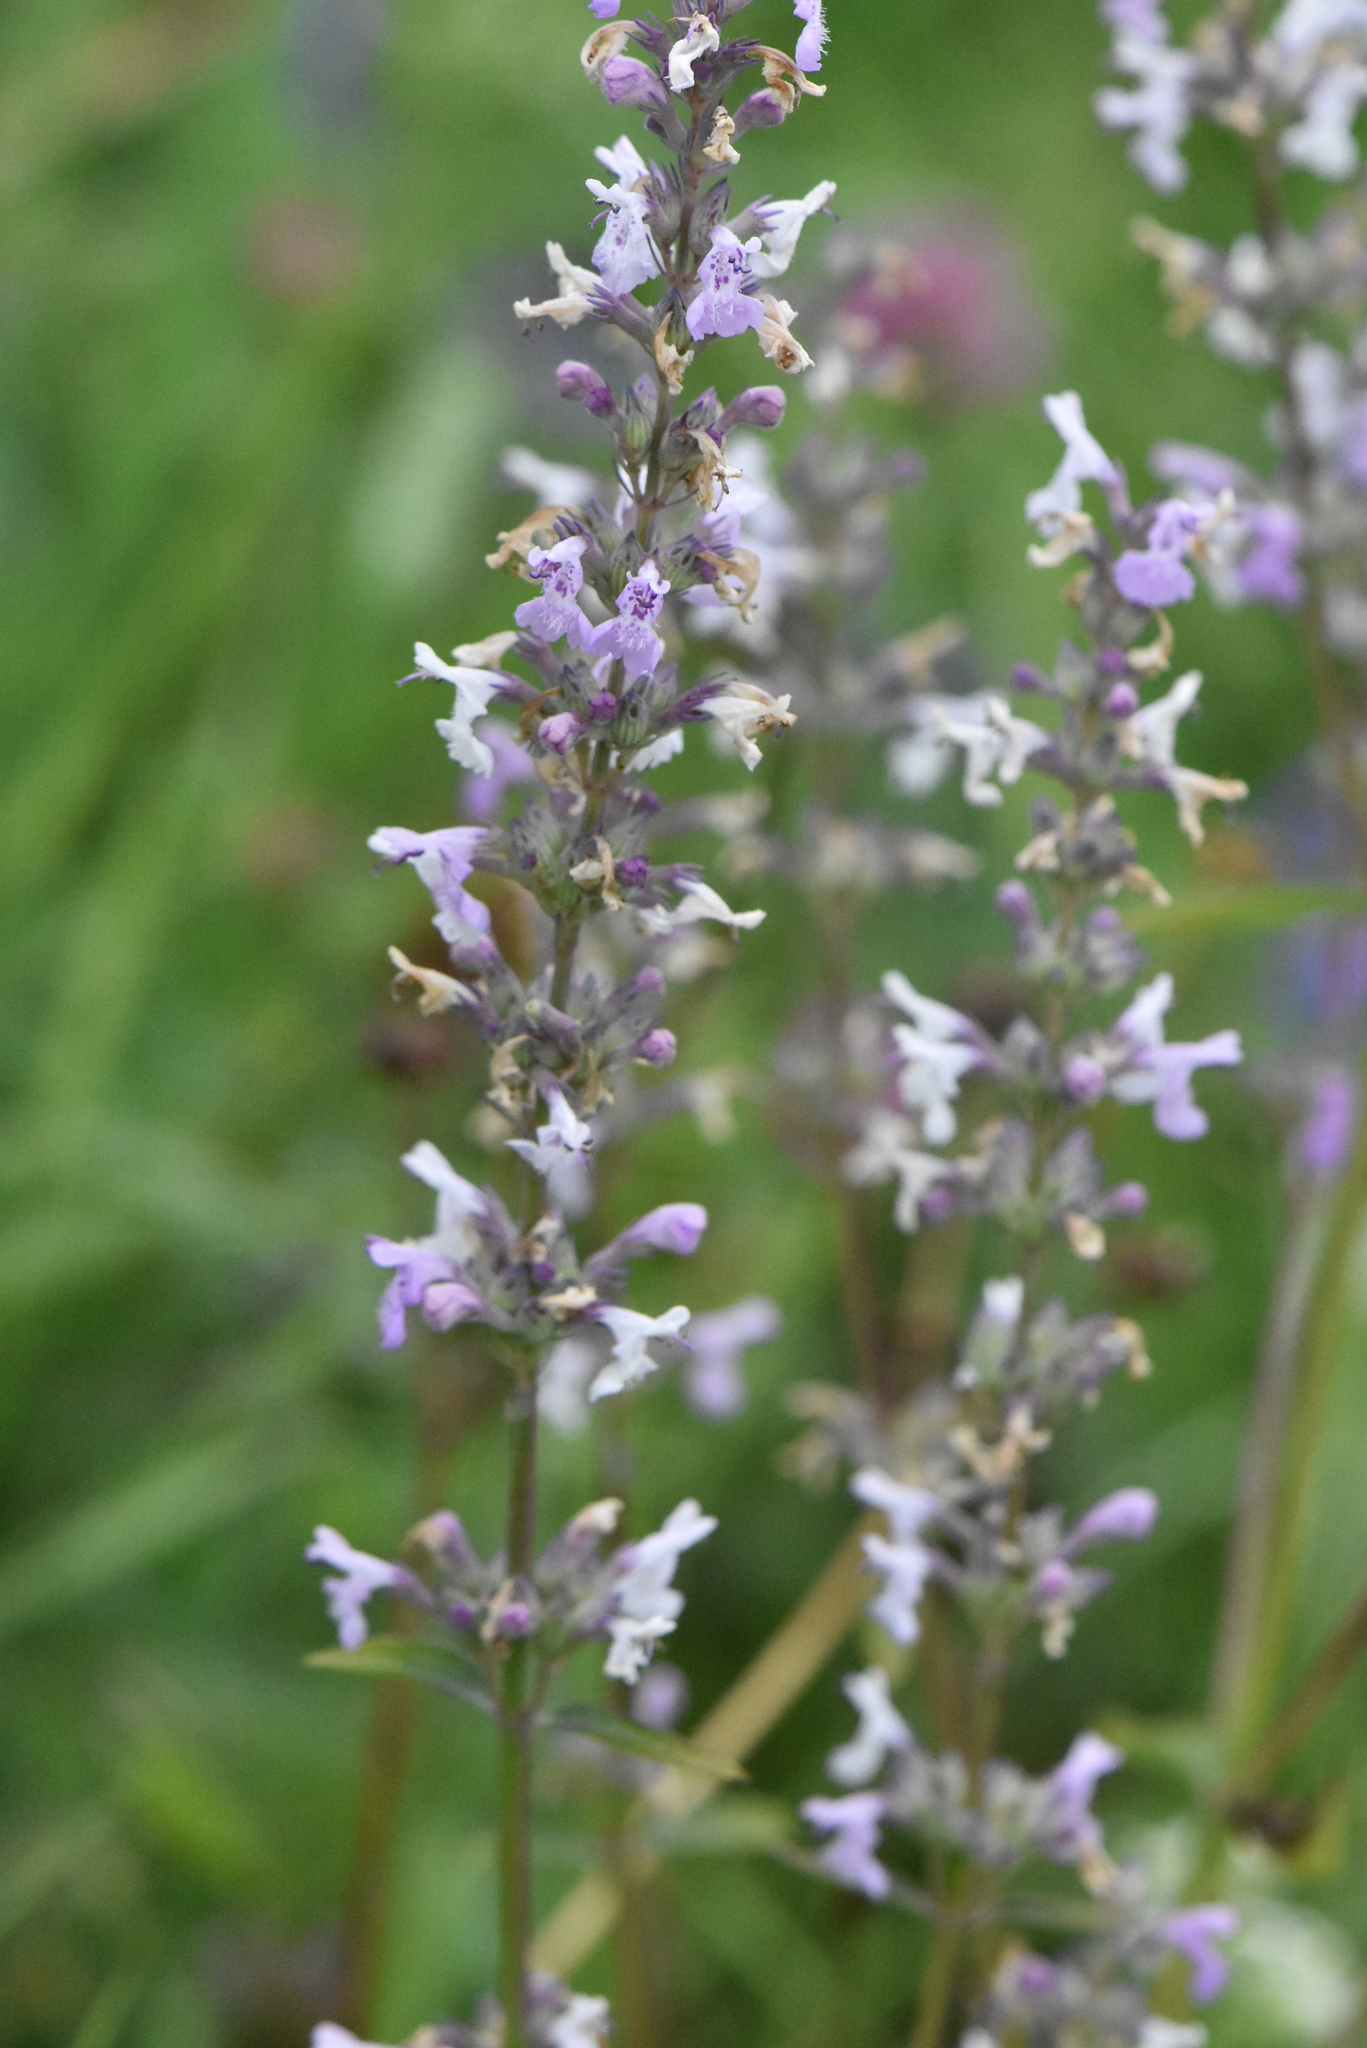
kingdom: Plantae
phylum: Tracheophyta
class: Magnoliopsida
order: Lamiales
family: Lamiaceae
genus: Nepeta
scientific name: Nepeta nuda
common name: Hairless catmint
